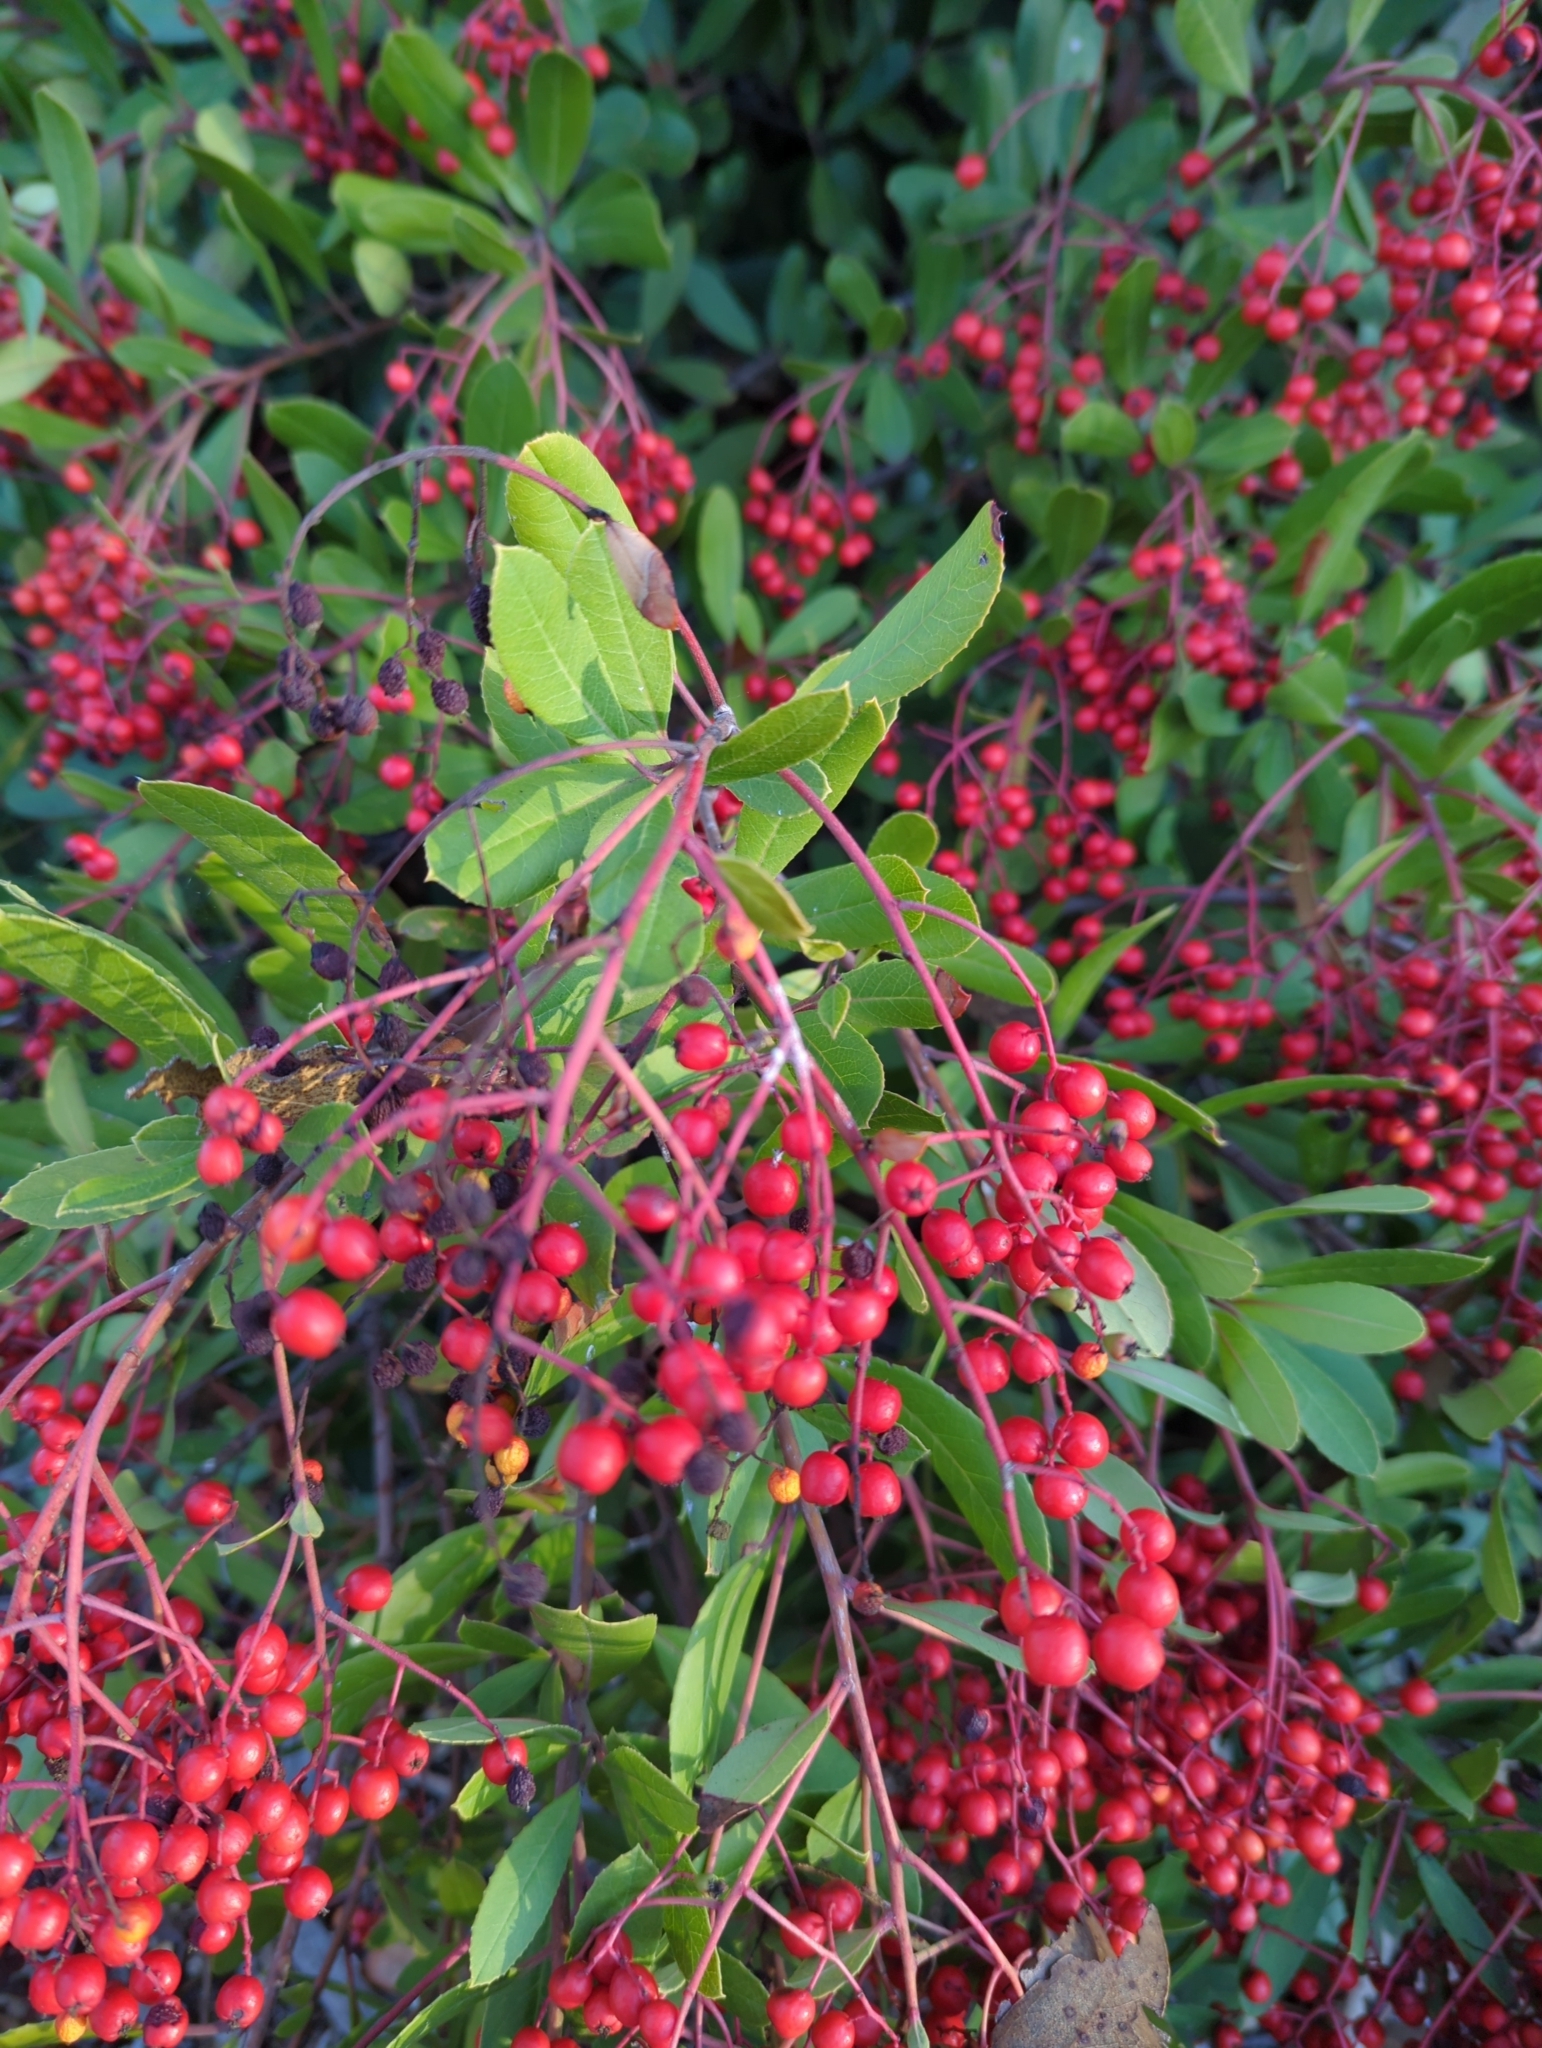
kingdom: Plantae
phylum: Tracheophyta
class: Magnoliopsida
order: Rosales
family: Rosaceae
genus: Heteromeles
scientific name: Heteromeles arbutifolia
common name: California-holly
